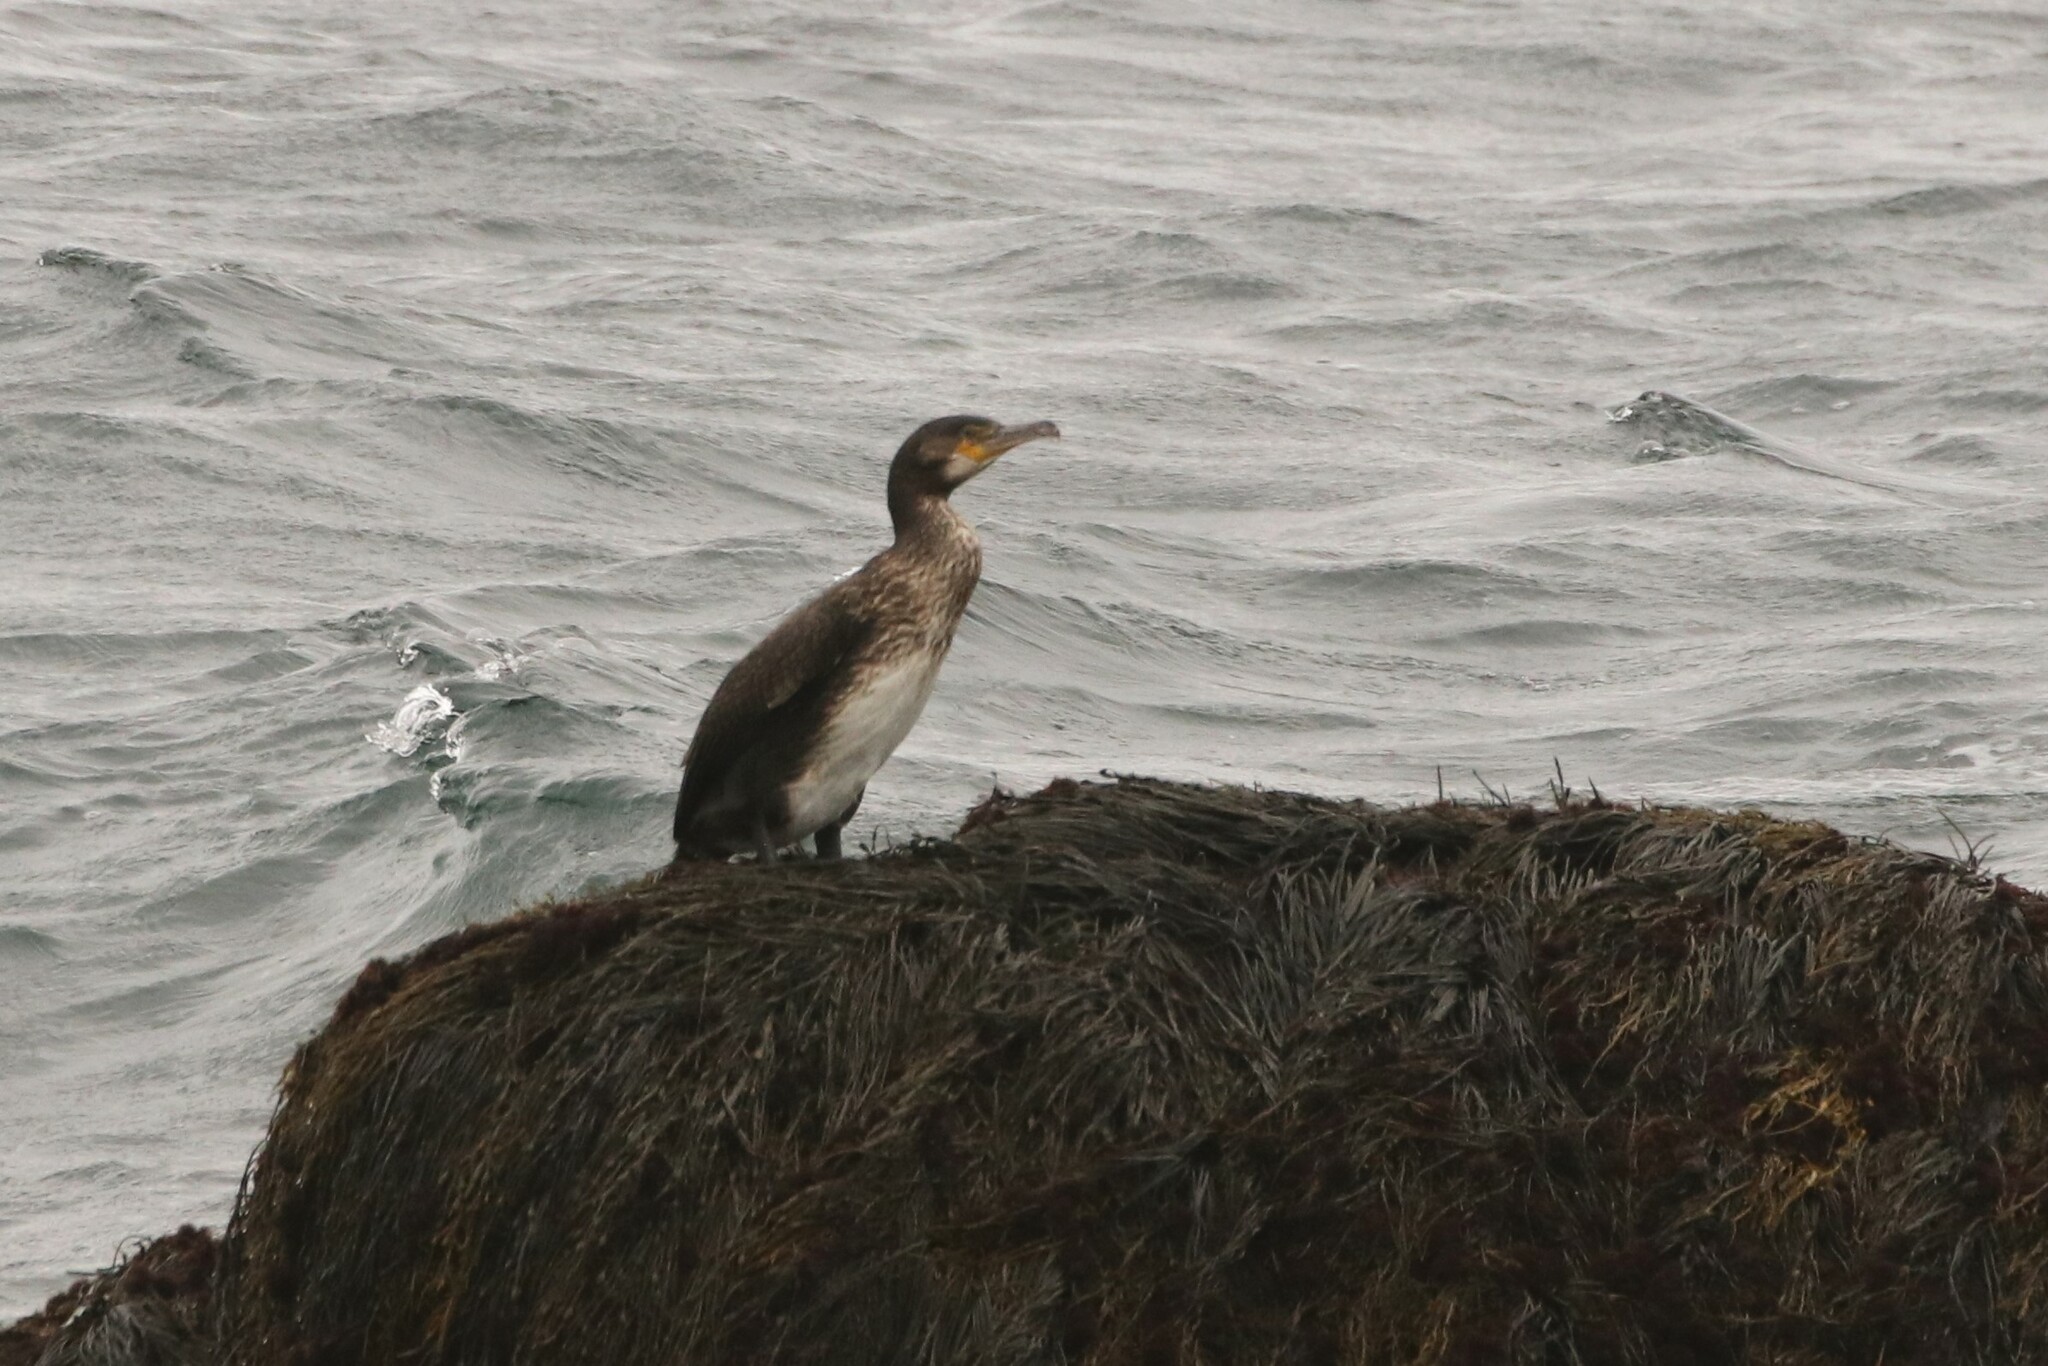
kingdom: Animalia
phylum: Chordata
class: Aves
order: Suliformes
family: Phalacrocoracidae
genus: Phalacrocorax
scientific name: Phalacrocorax carbo
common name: Great cormorant
